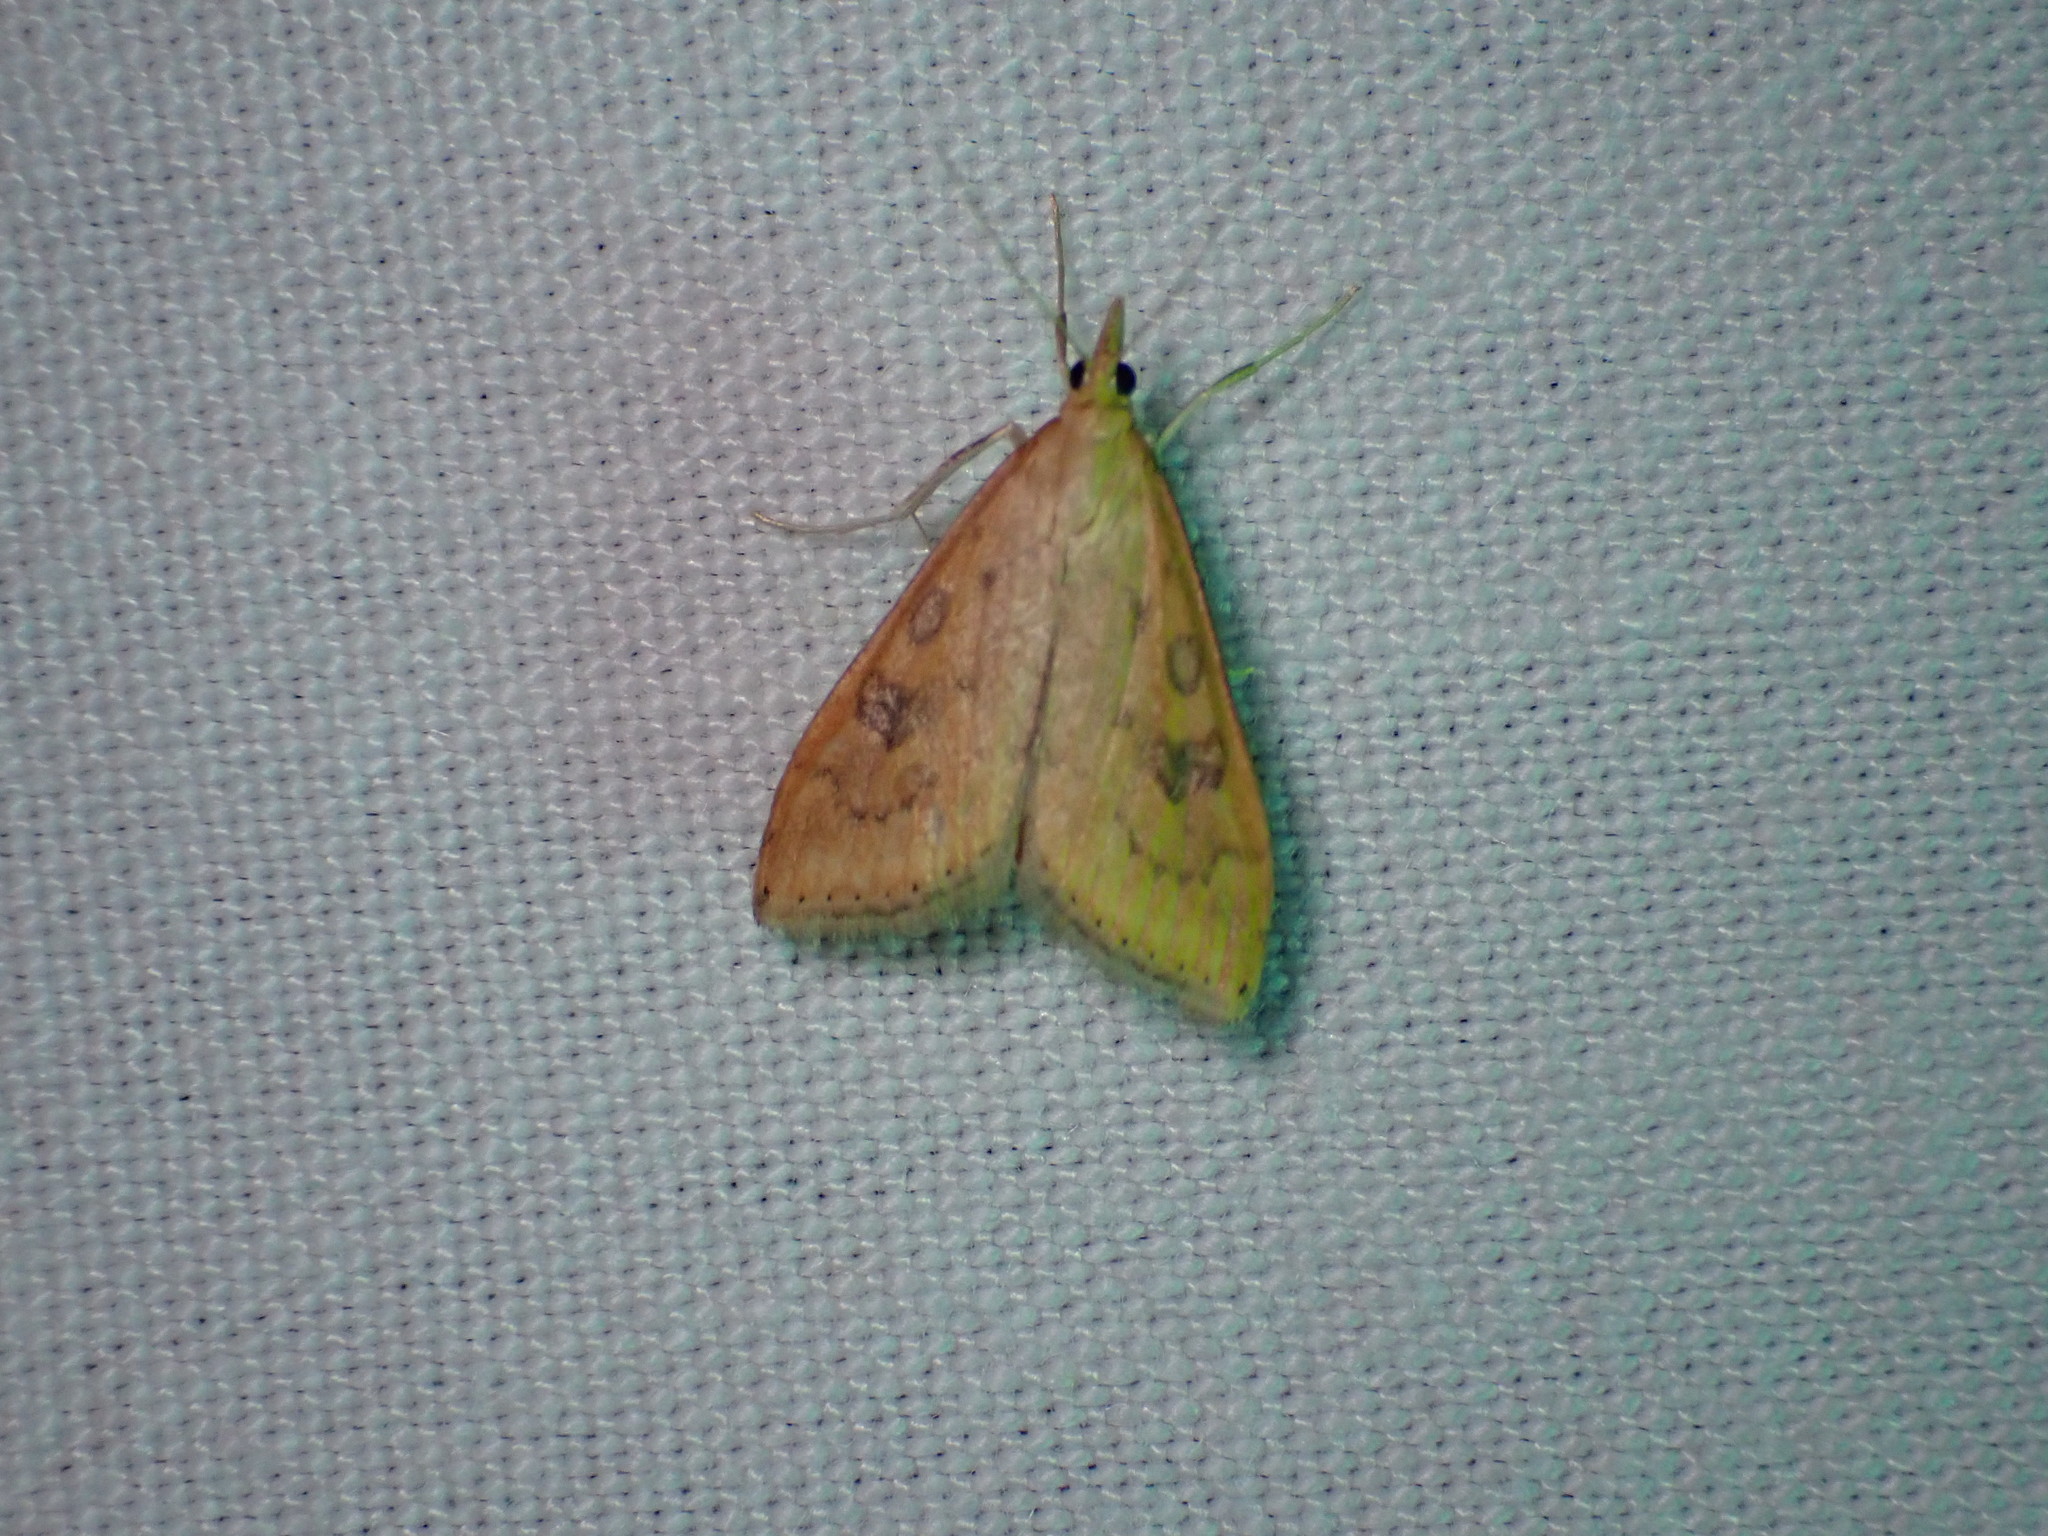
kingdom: Animalia
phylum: Arthropoda
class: Insecta
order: Lepidoptera
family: Crambidae
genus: Udea
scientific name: Udea ferrugalis
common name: Rusty dot
